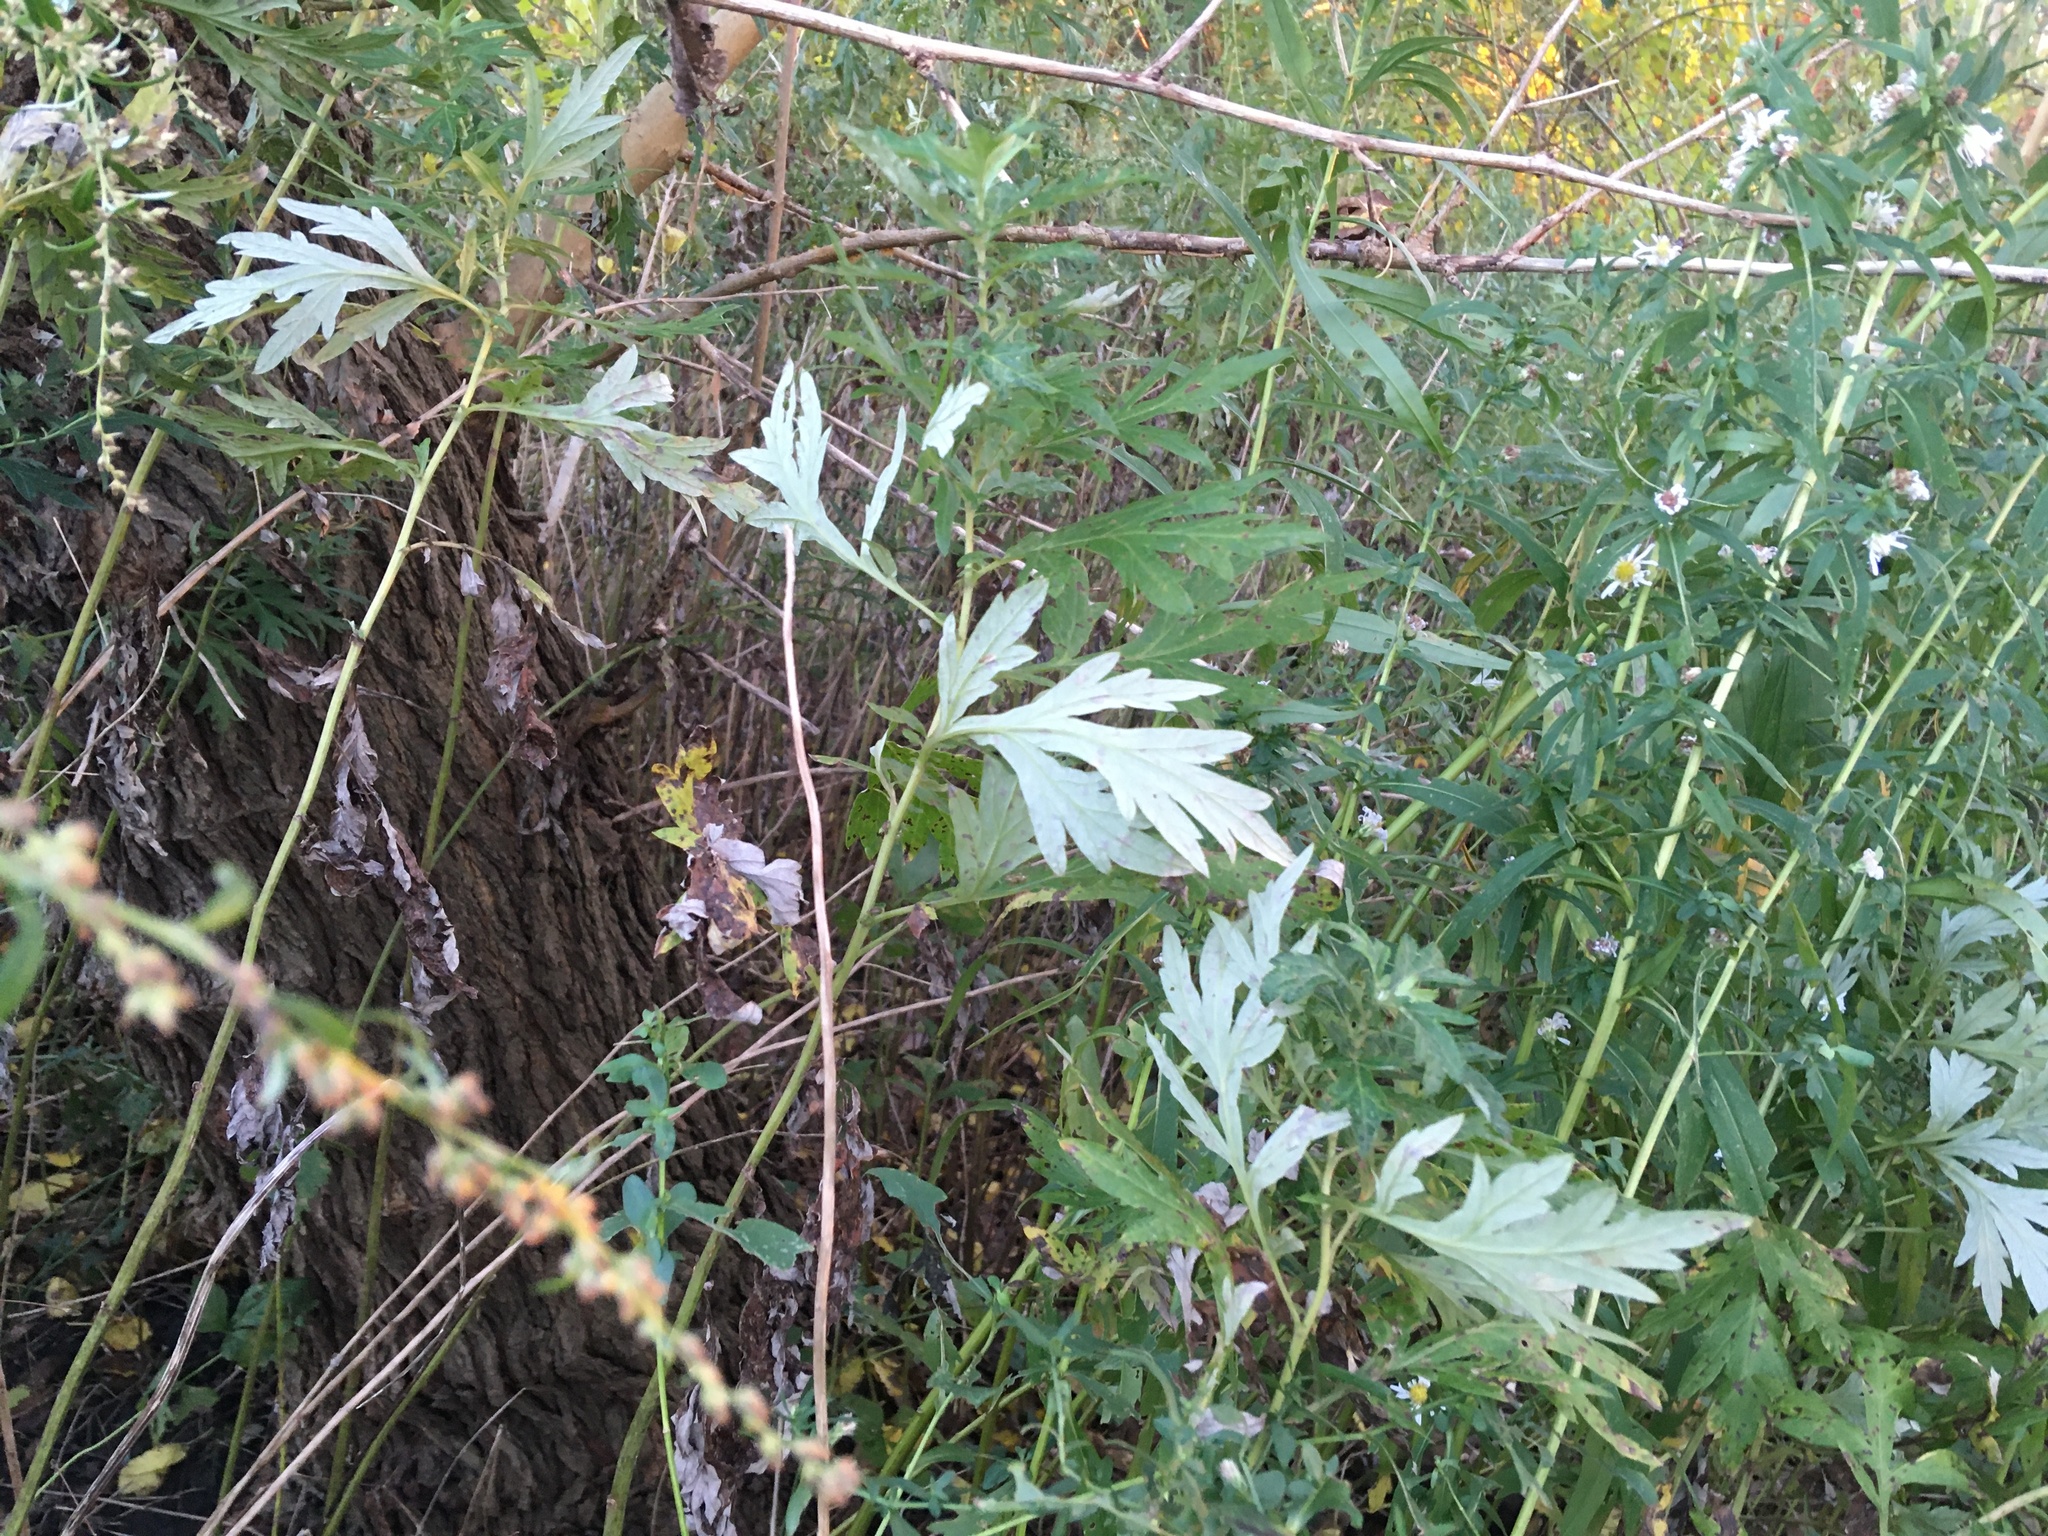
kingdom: Plantae
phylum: Tracheophyta
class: Magnoliopsida
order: Asterales
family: Asteraceae
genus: Artemisia
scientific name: Artemisia vulgaris
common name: Mugwort
